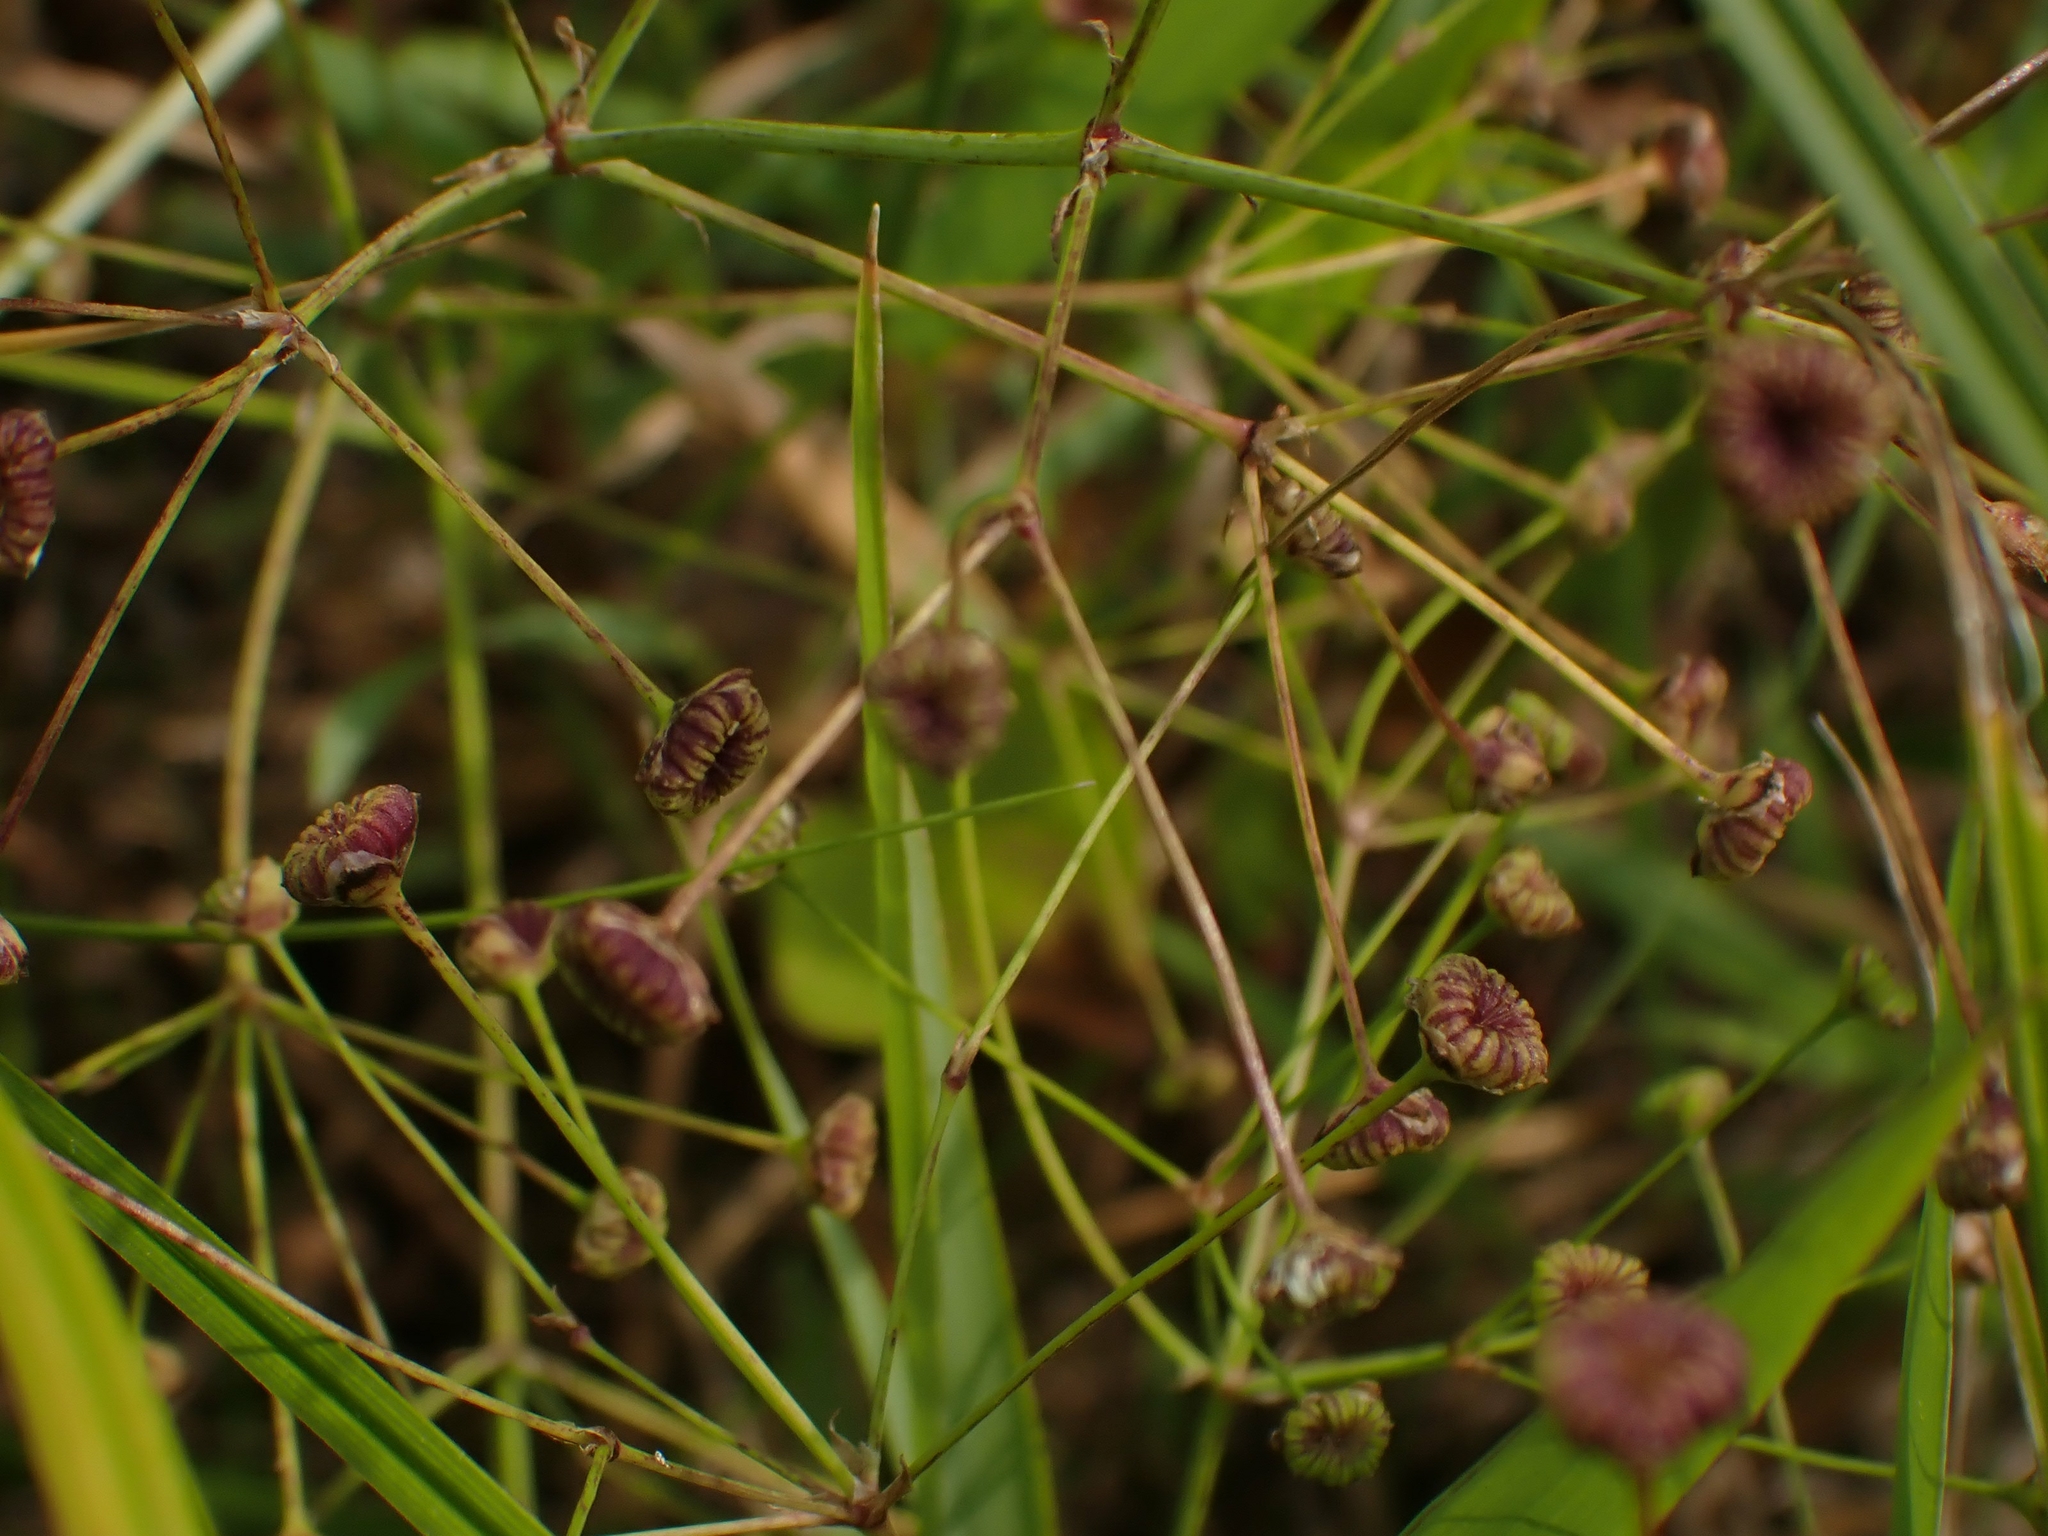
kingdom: Plantae
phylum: Tracheophyta
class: Liliopsida
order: Alismatales
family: Alismataceae
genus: Alisma
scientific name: Alisma triviale
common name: Northern water-plantain
